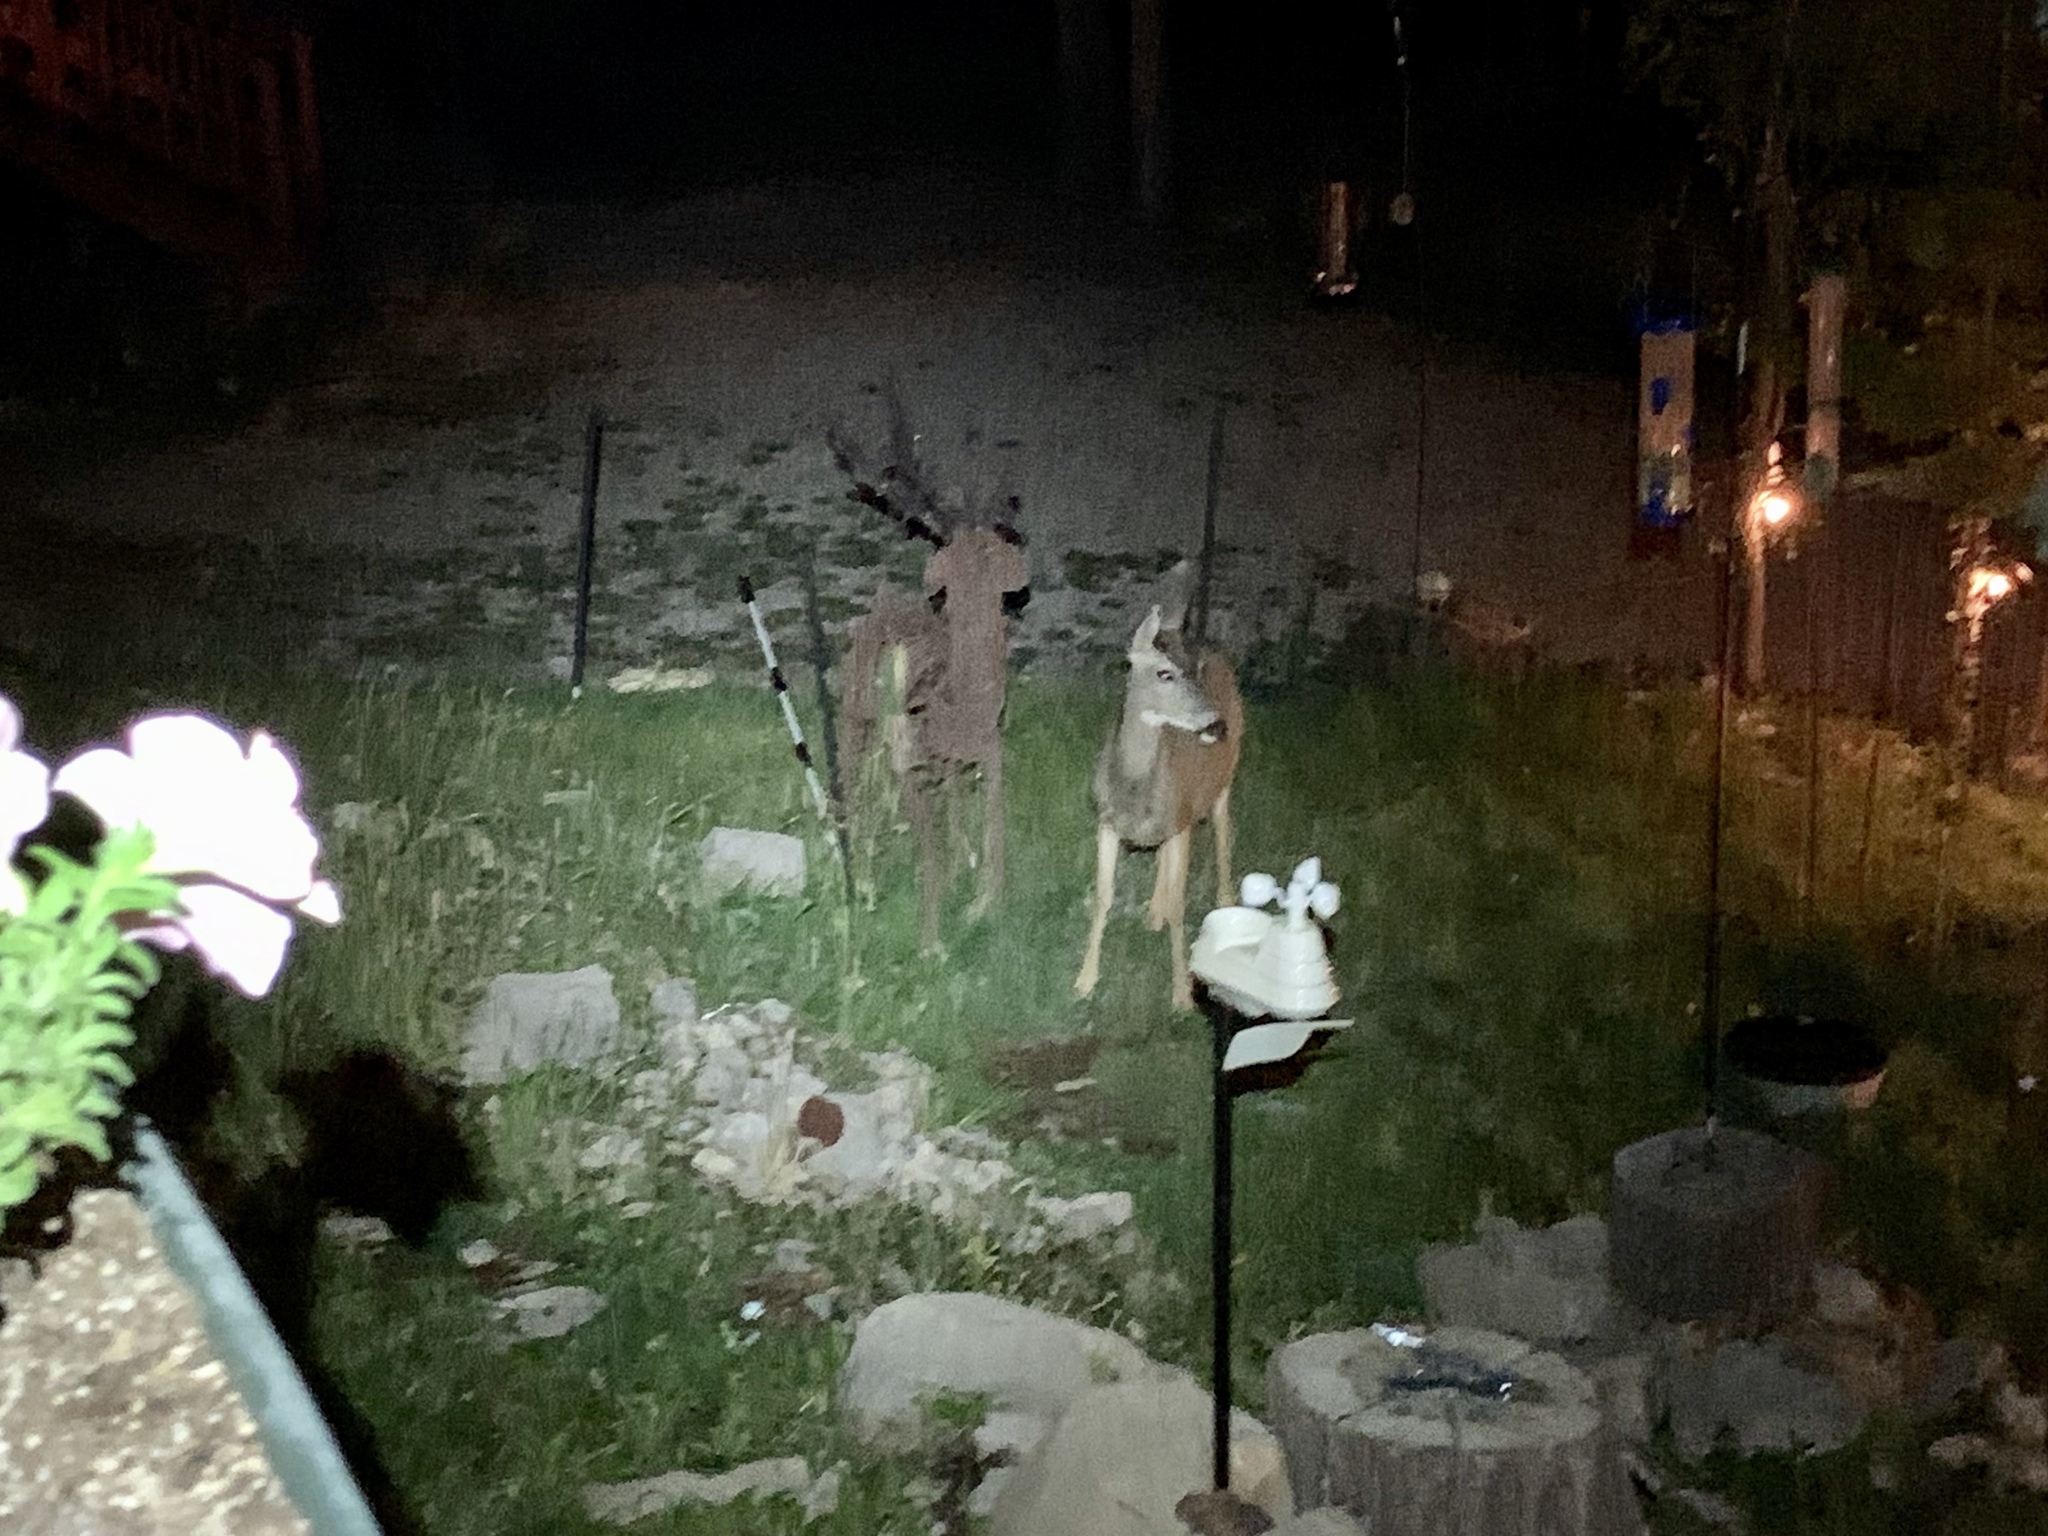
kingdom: Animalia
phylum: Chordata
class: Mammalia
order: Artiodactyla
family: Cervidae
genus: Odocoileus
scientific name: Odocoileus hemionus
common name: Mule deer
